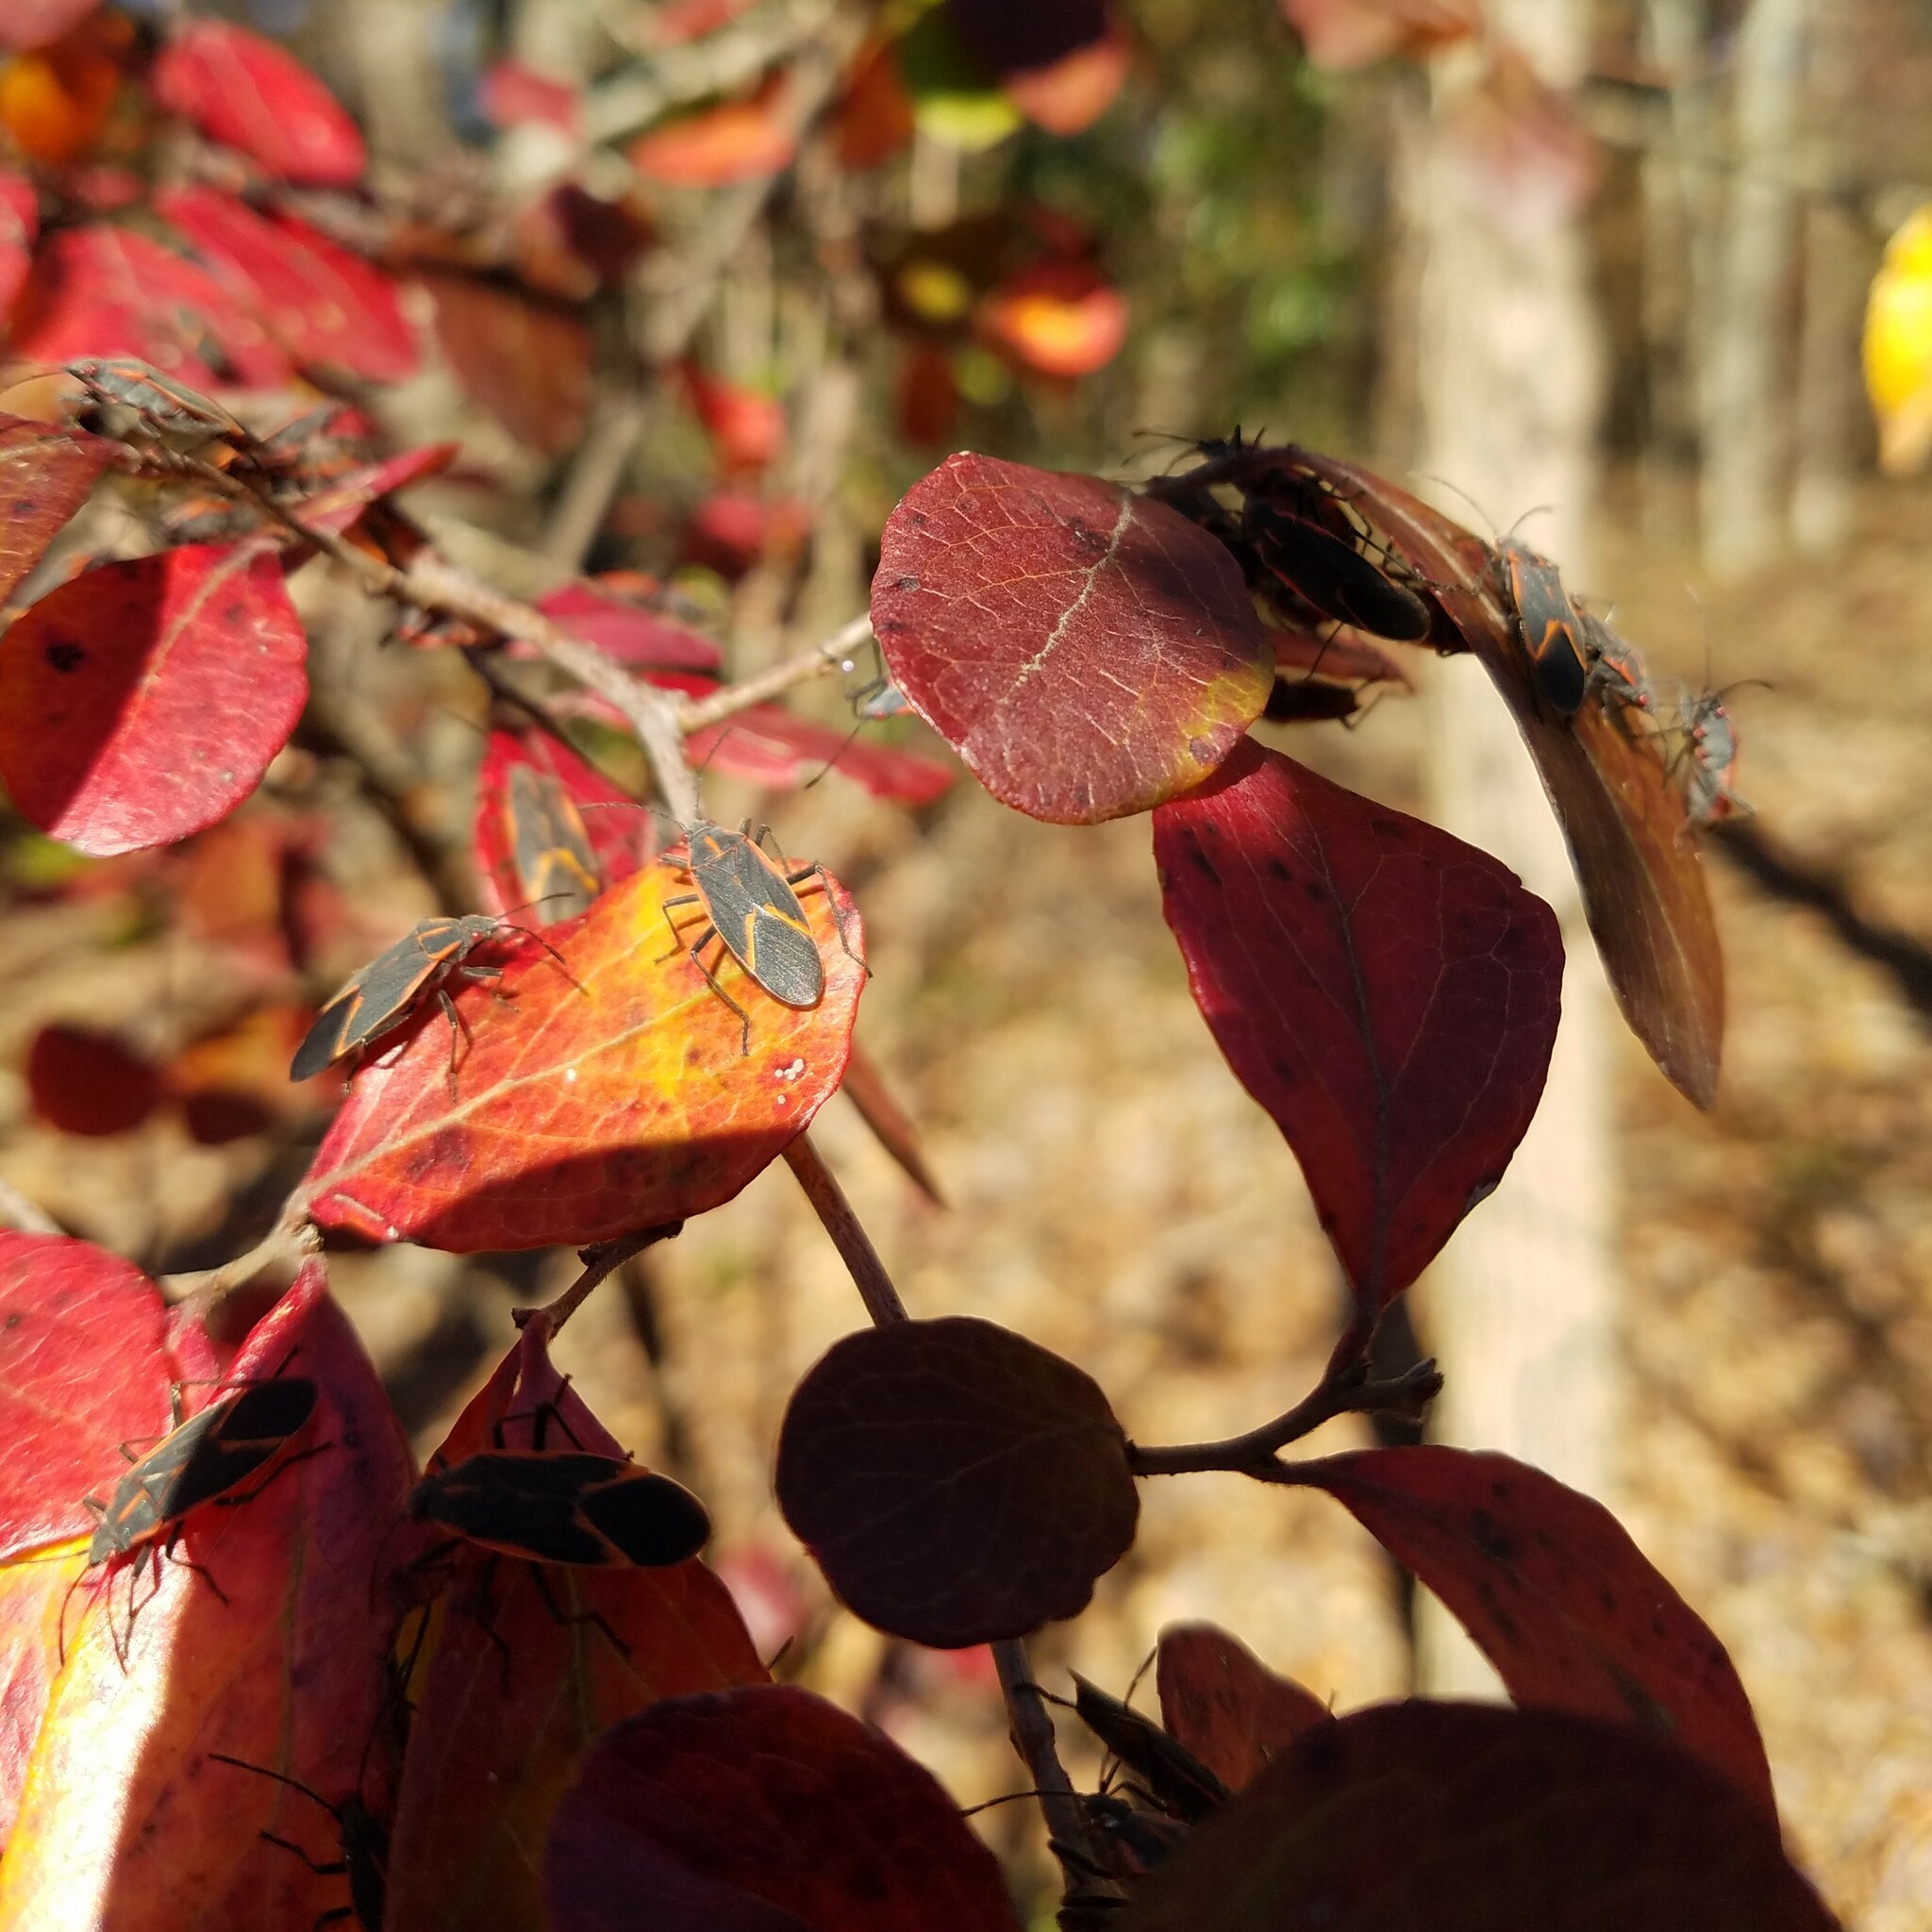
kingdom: Animalia
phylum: Arthropoda
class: Insecta
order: Hemiptera
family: Rhopalidae
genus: Boisea
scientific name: Boisea trivittata
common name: Boxelder bug
